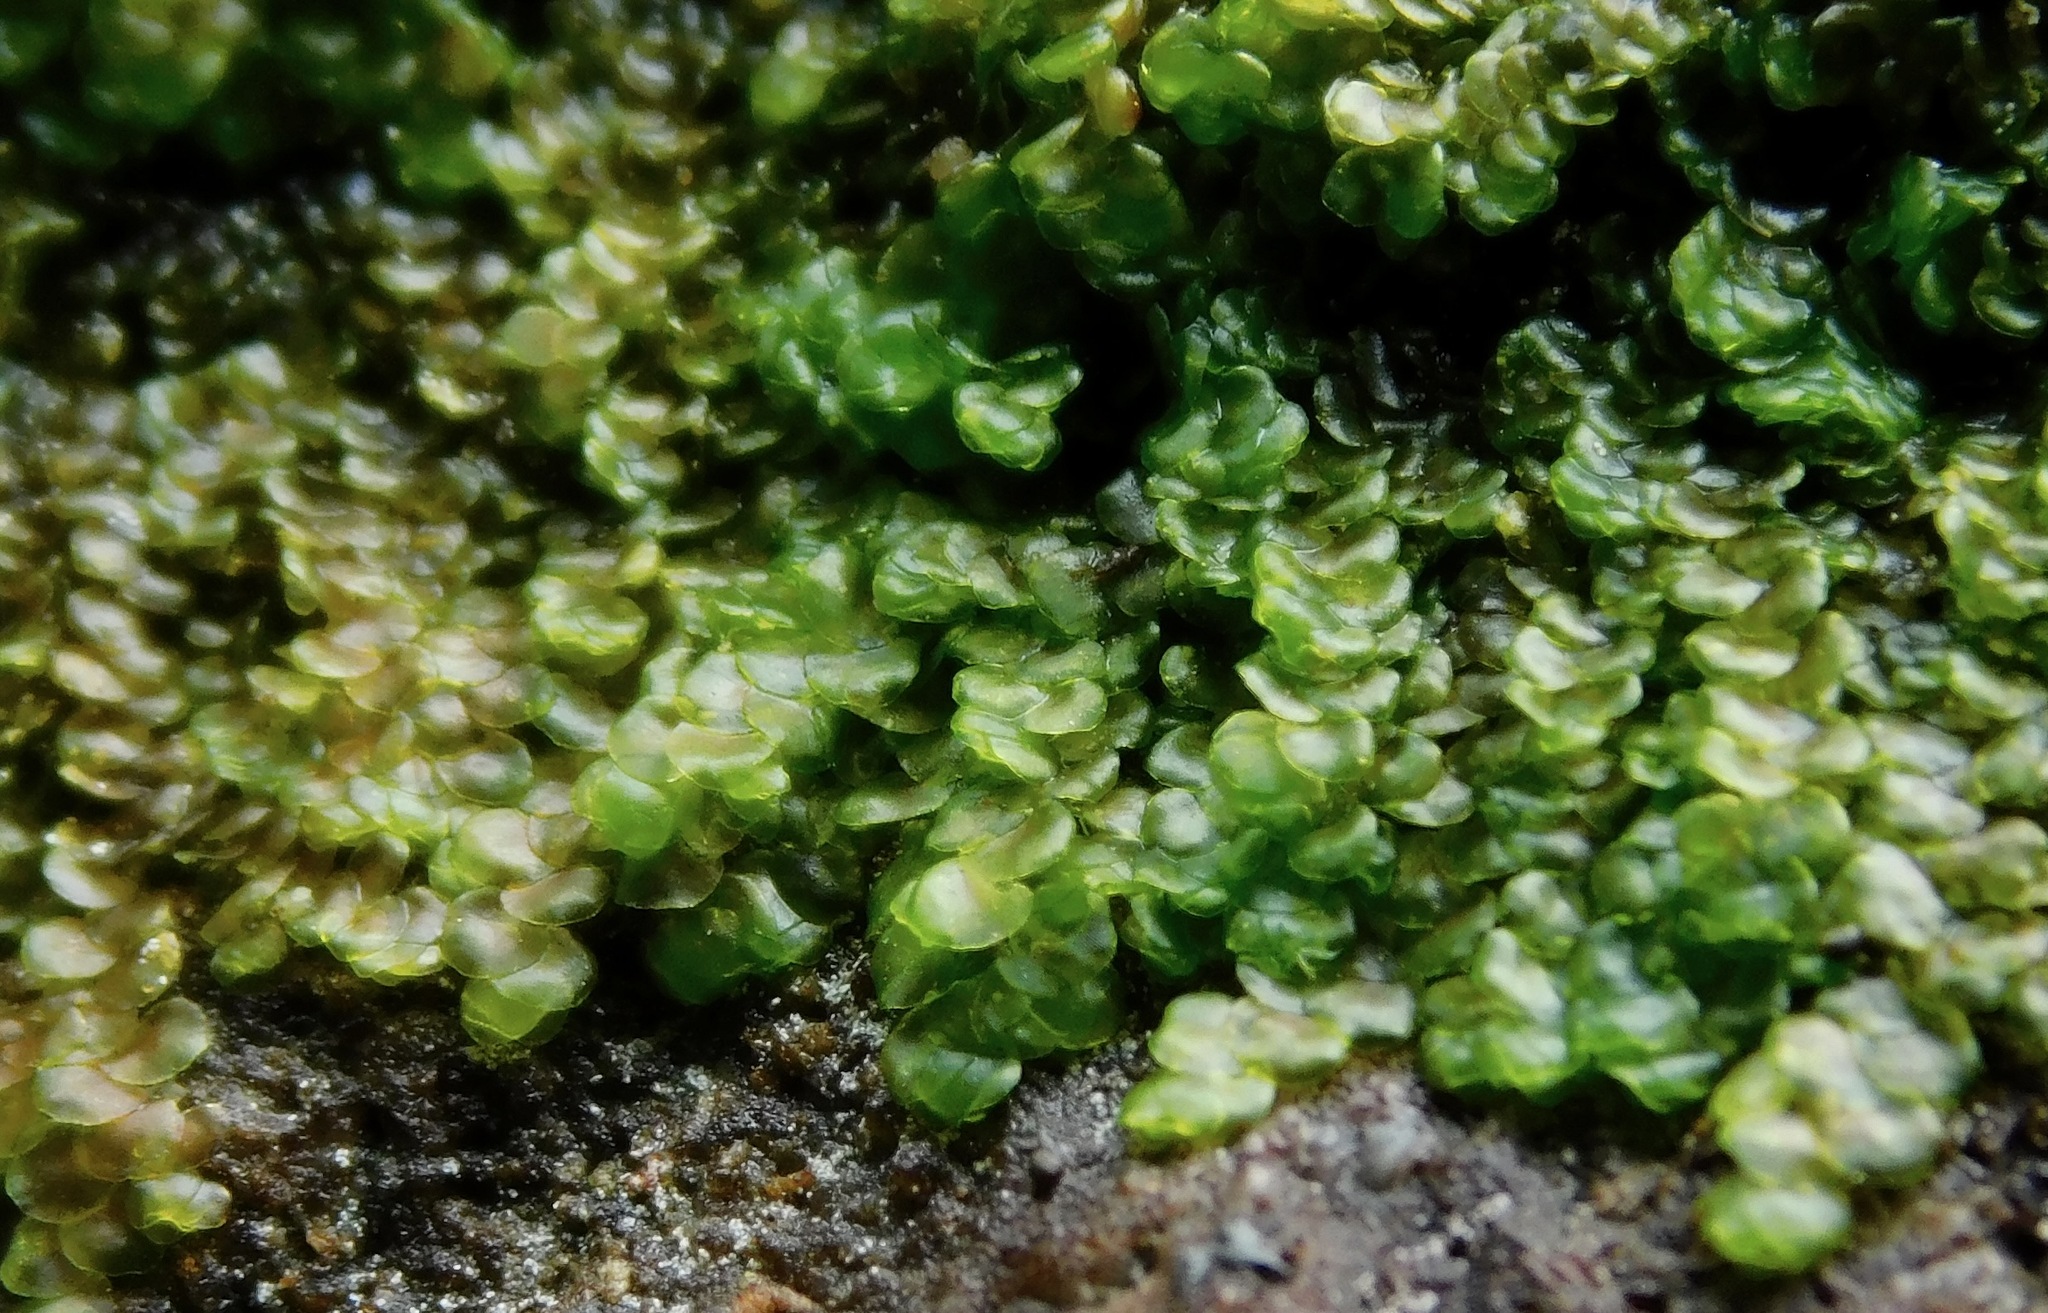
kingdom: Plantae
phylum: Marchantiophyta
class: Jungermanniopsida
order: Porellales
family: Radulaceae
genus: Radula
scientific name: Radula complanata
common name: Flat-leaved scalewort
